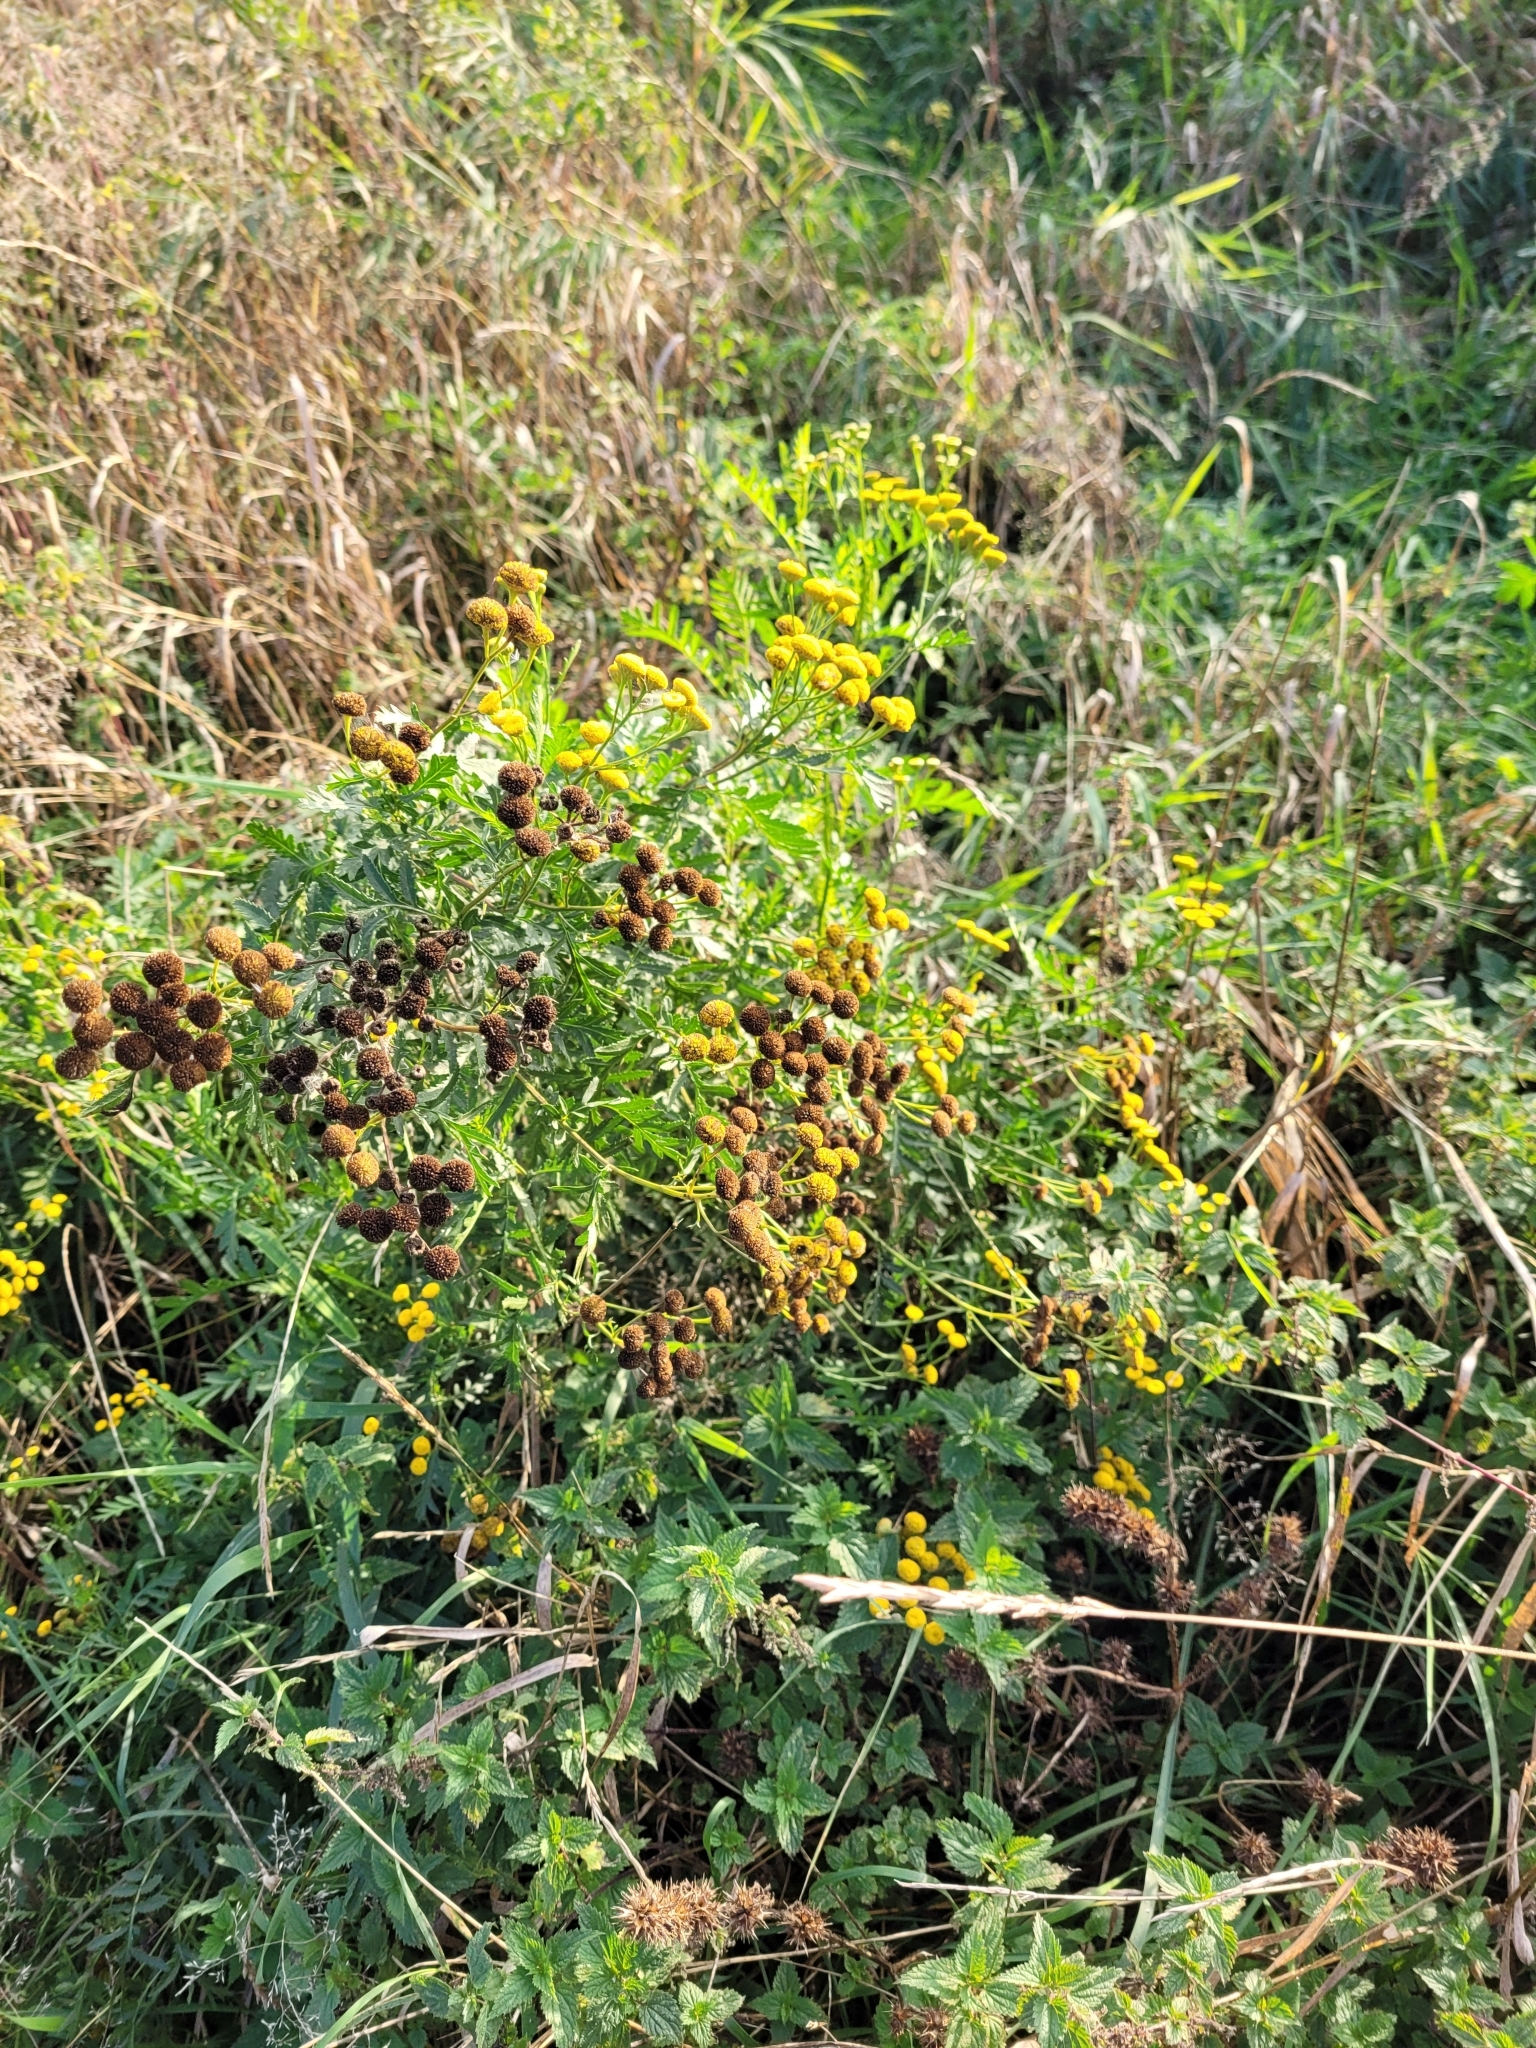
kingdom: Plantae
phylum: Tracheophyta
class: Magnoliopsida
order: Asterales
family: Asteraceae
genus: Tanacetum
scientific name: Tanacetum vulgare
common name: Common tansy
